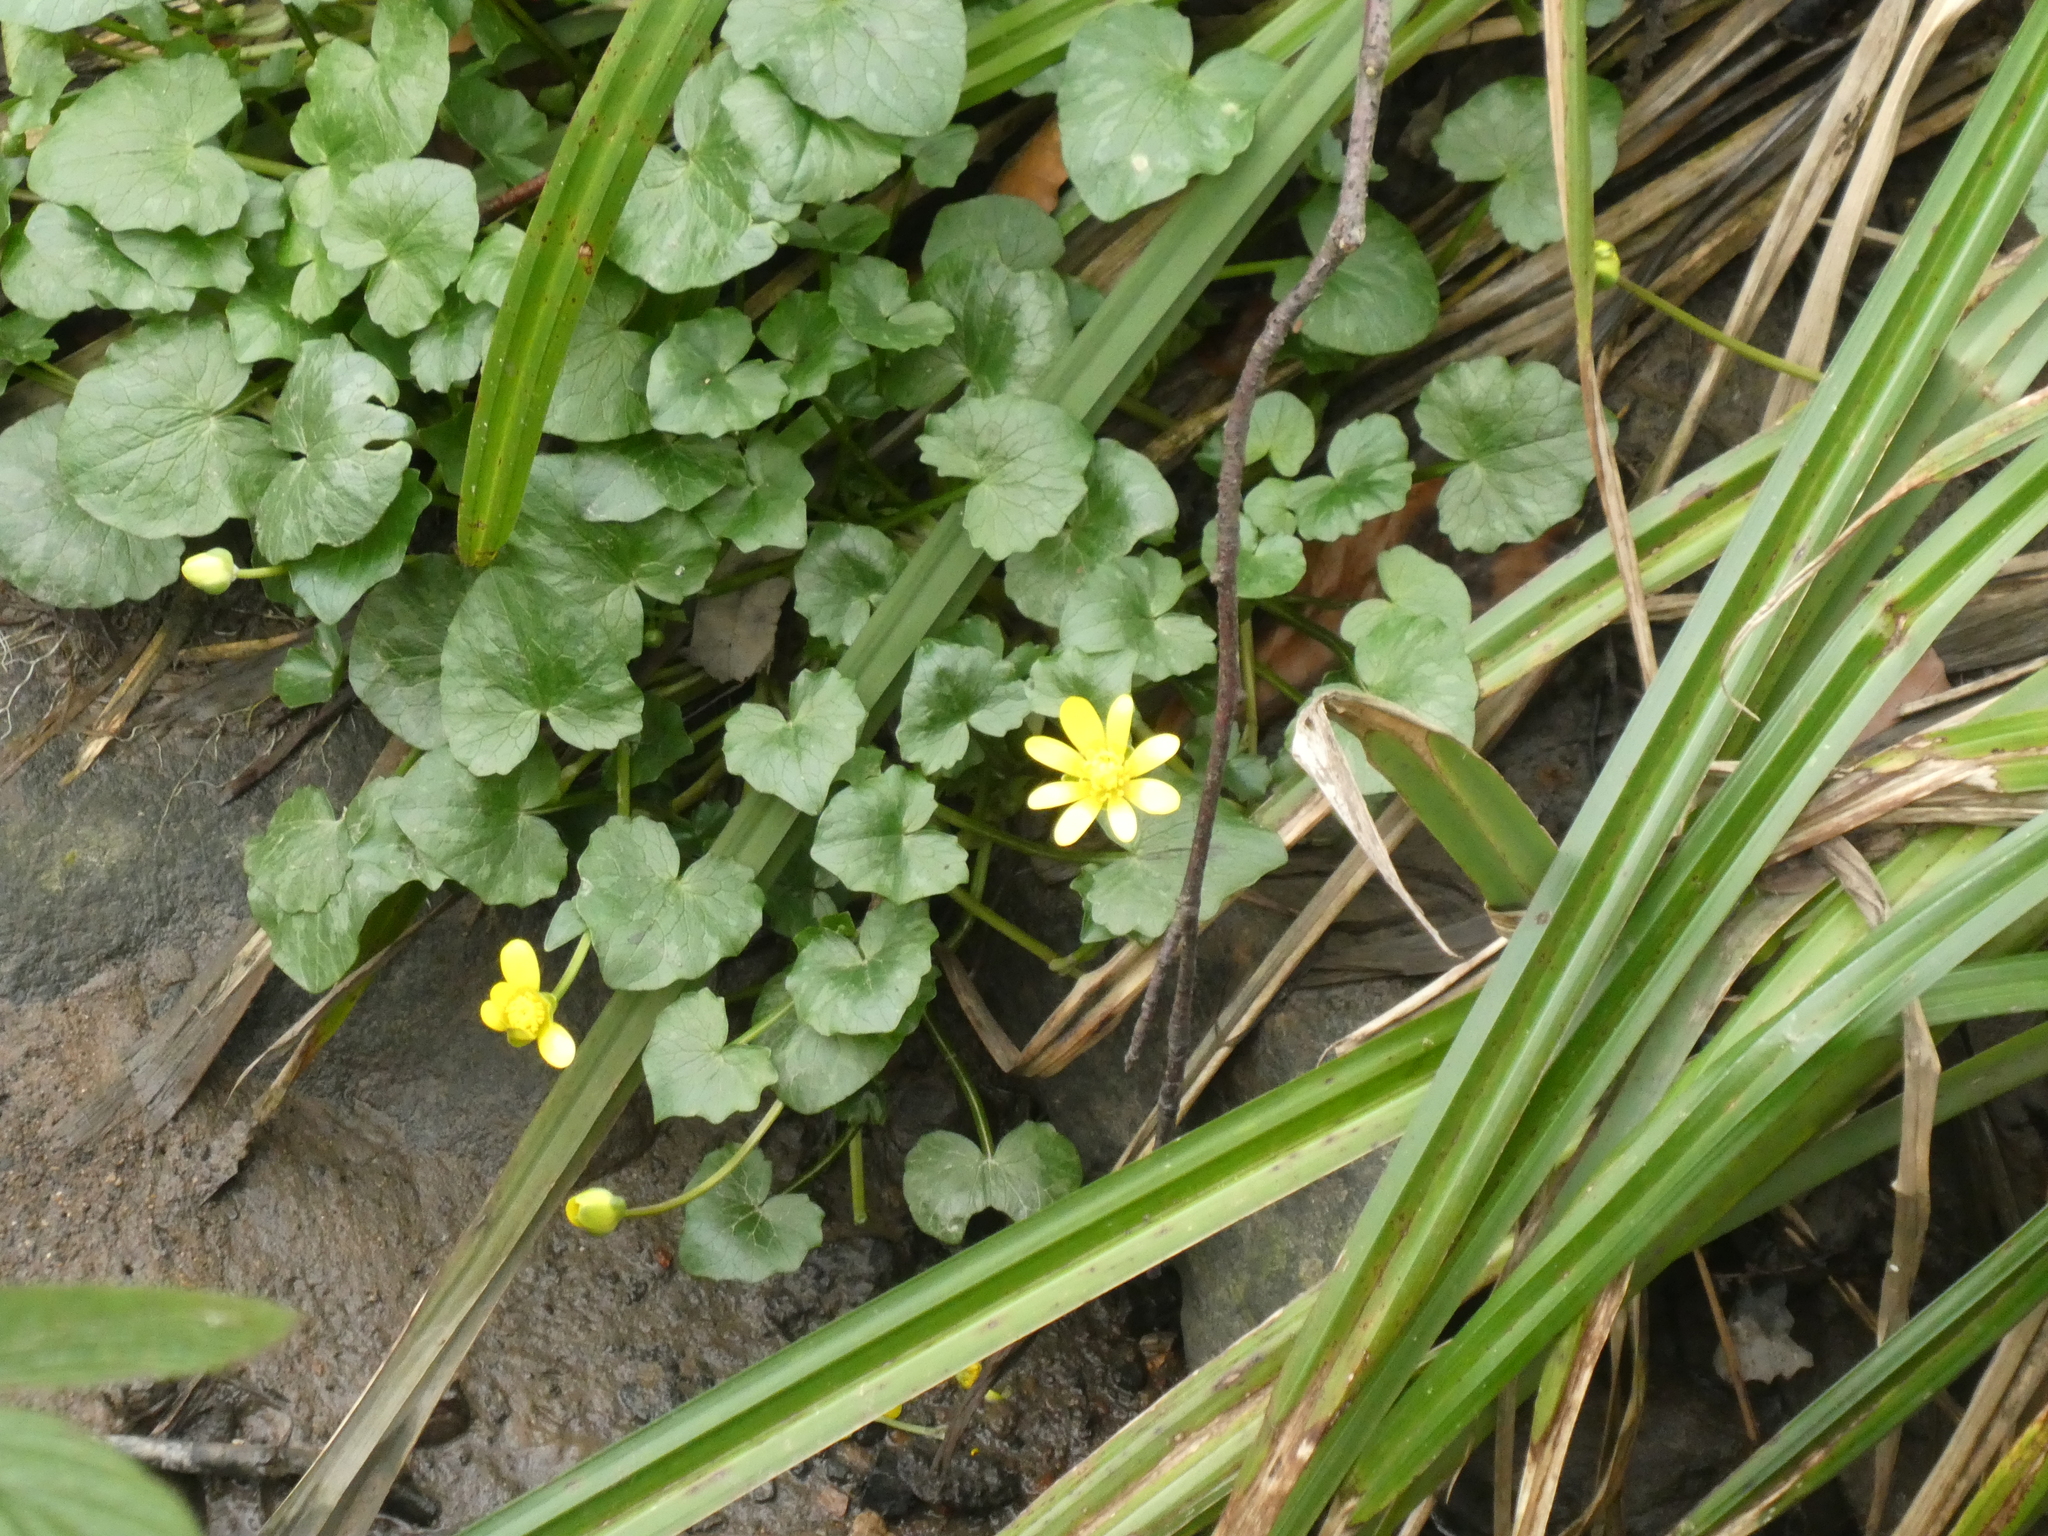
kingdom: Plantae
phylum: Tracheophyta
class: Magnoliopsida
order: Ranunculales
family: Ranunculaceae
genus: Ficaria
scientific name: Ficaria verna
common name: Lesser celandine
